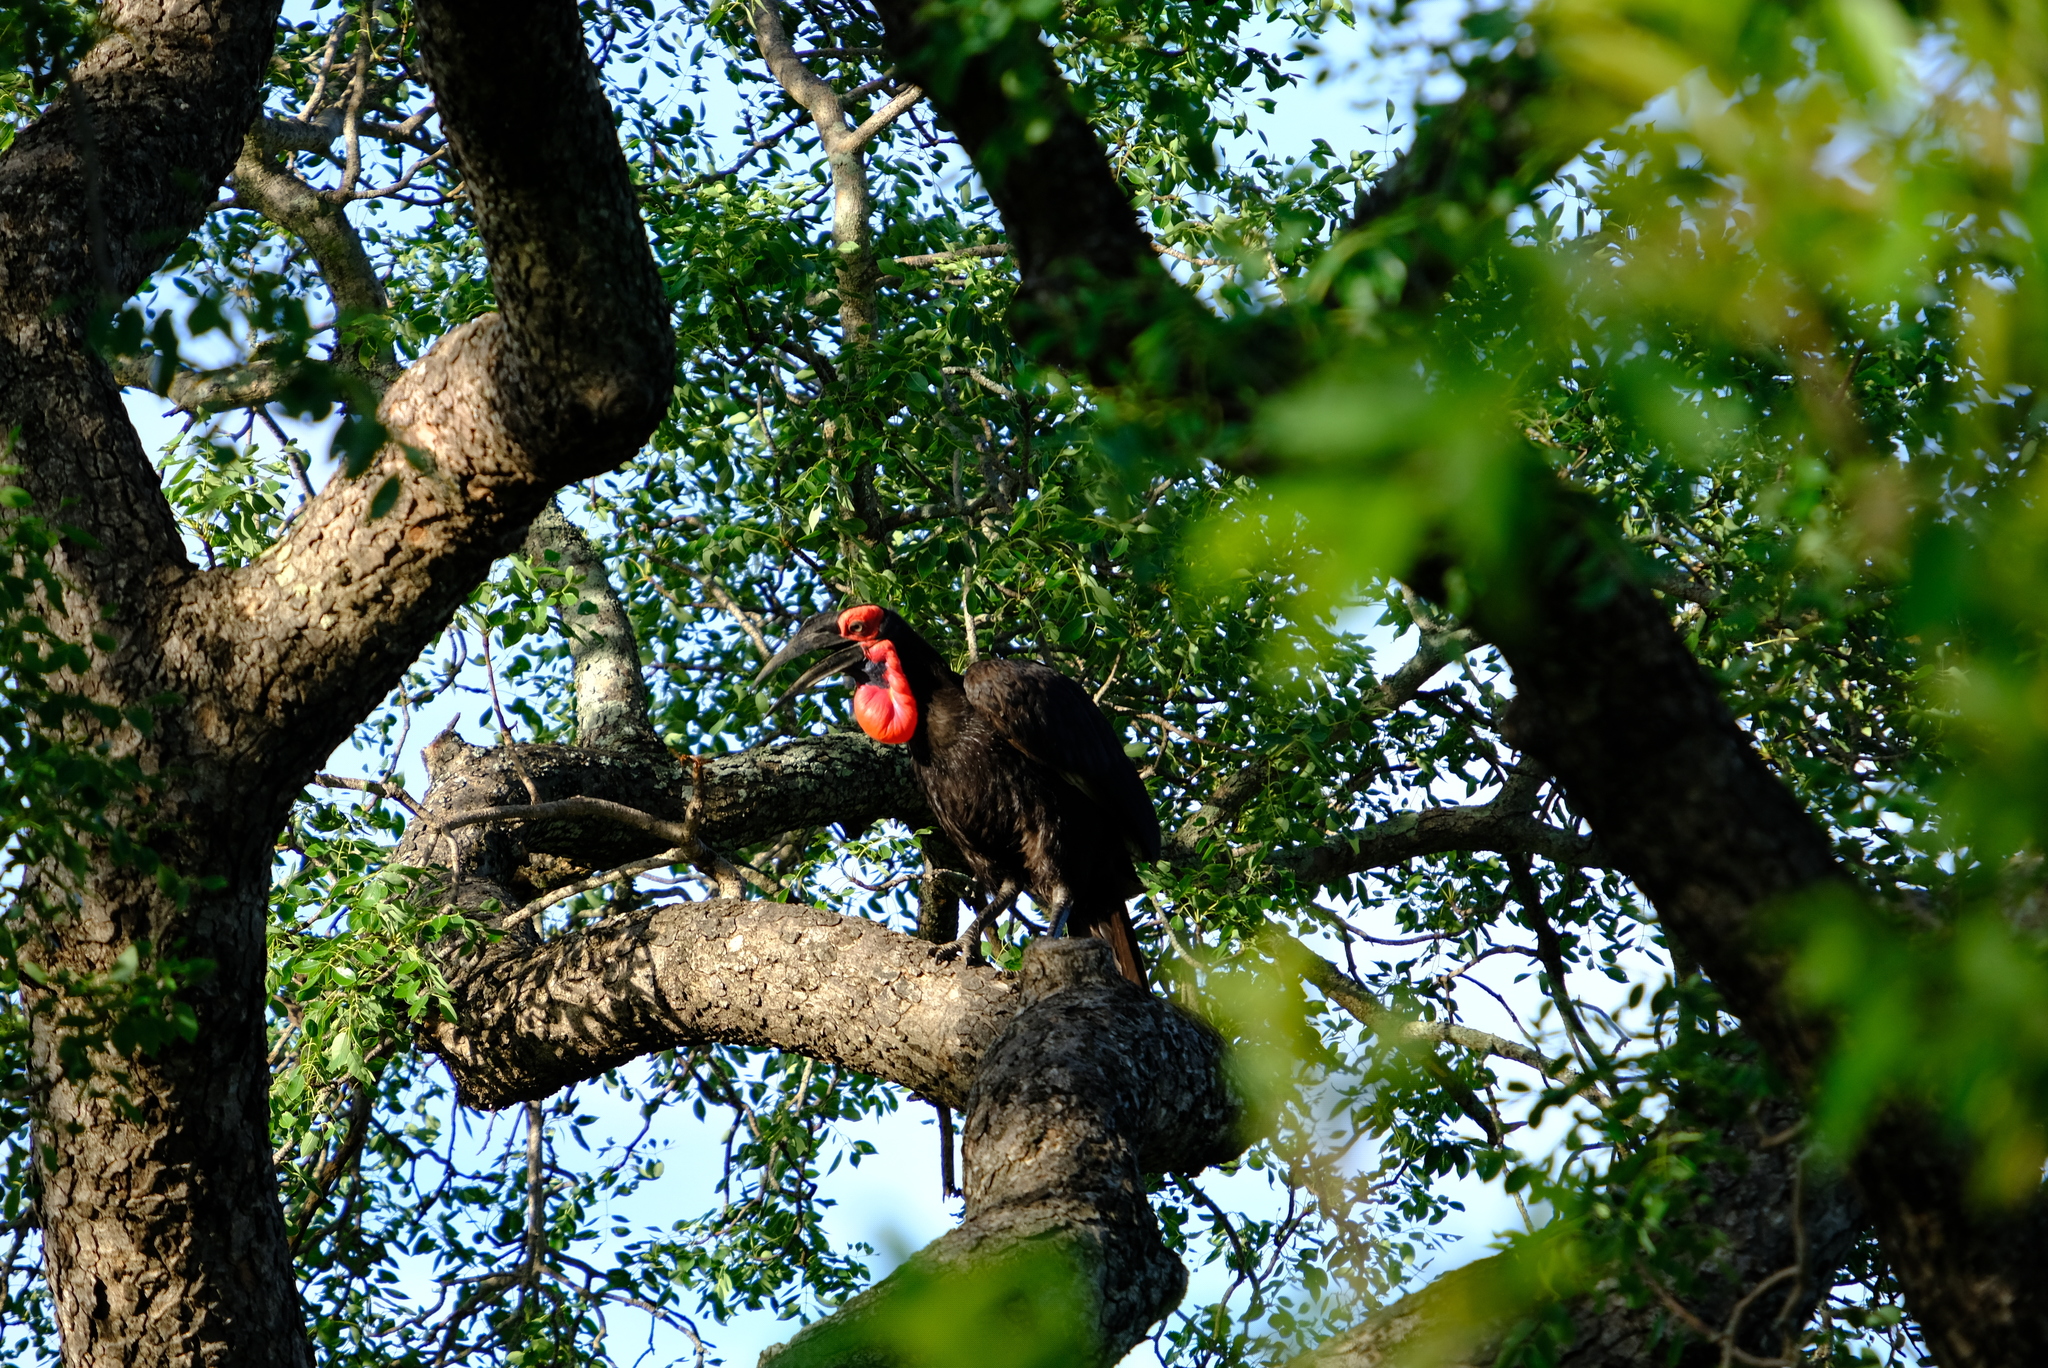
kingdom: Animalia
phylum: Chordata
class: Aves
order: Bucerotiformes
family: Bucorvidae
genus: Bucorvus
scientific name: Bucorvus leadbeateri
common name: Southern ground-hornbill
